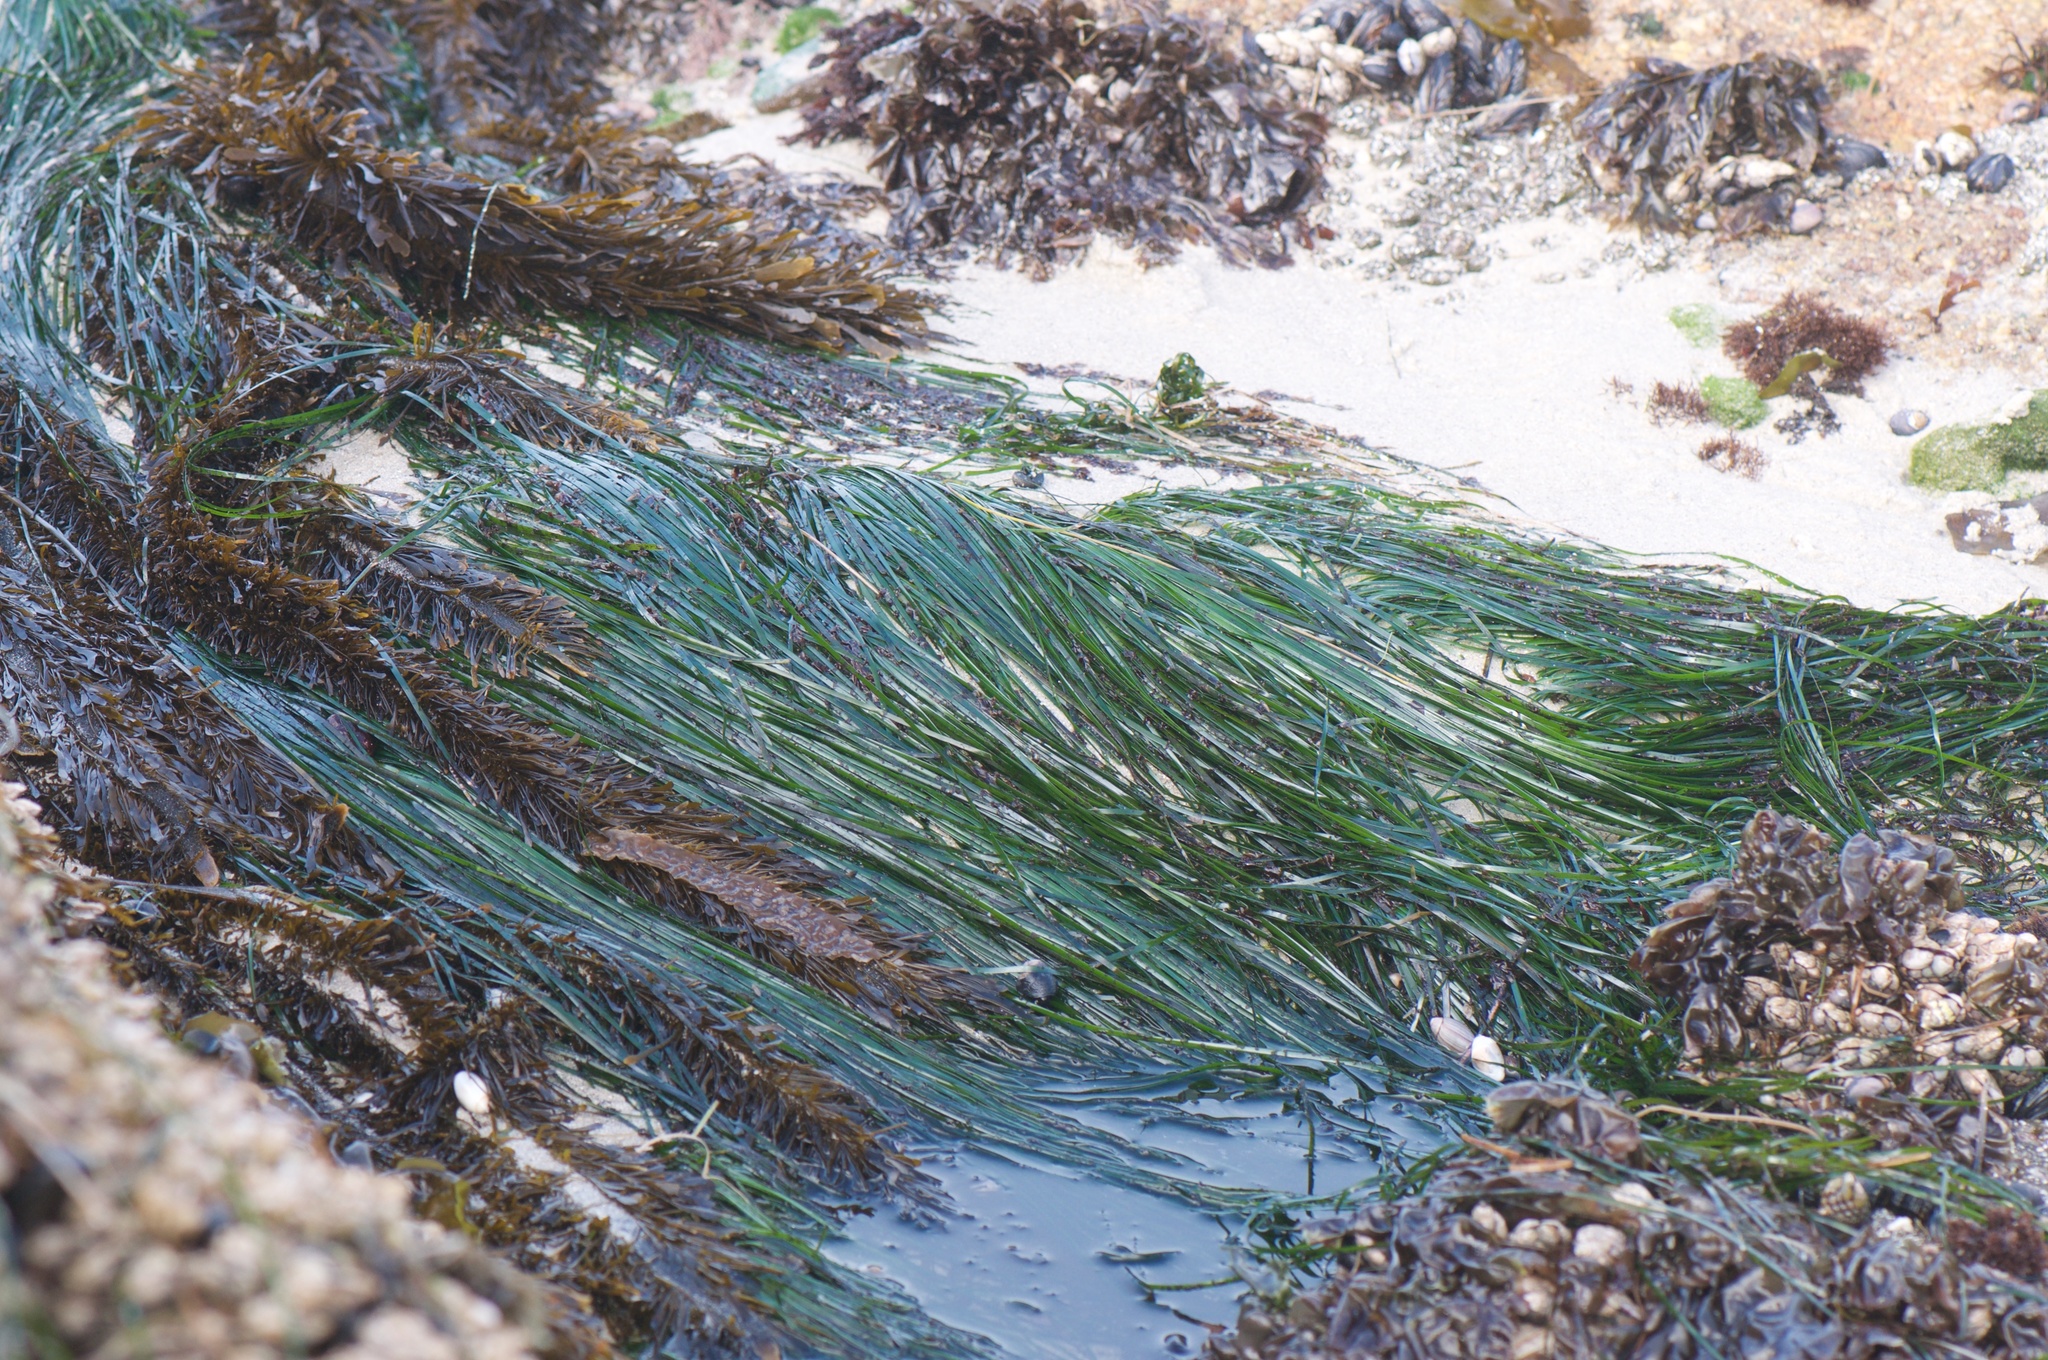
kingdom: Plantae
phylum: Tracheophyta
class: Liliopsida
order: Alismatales
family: Zosteraceae
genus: Phyllospadix
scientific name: Phyllospadix torreyi
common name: Surfgrass
